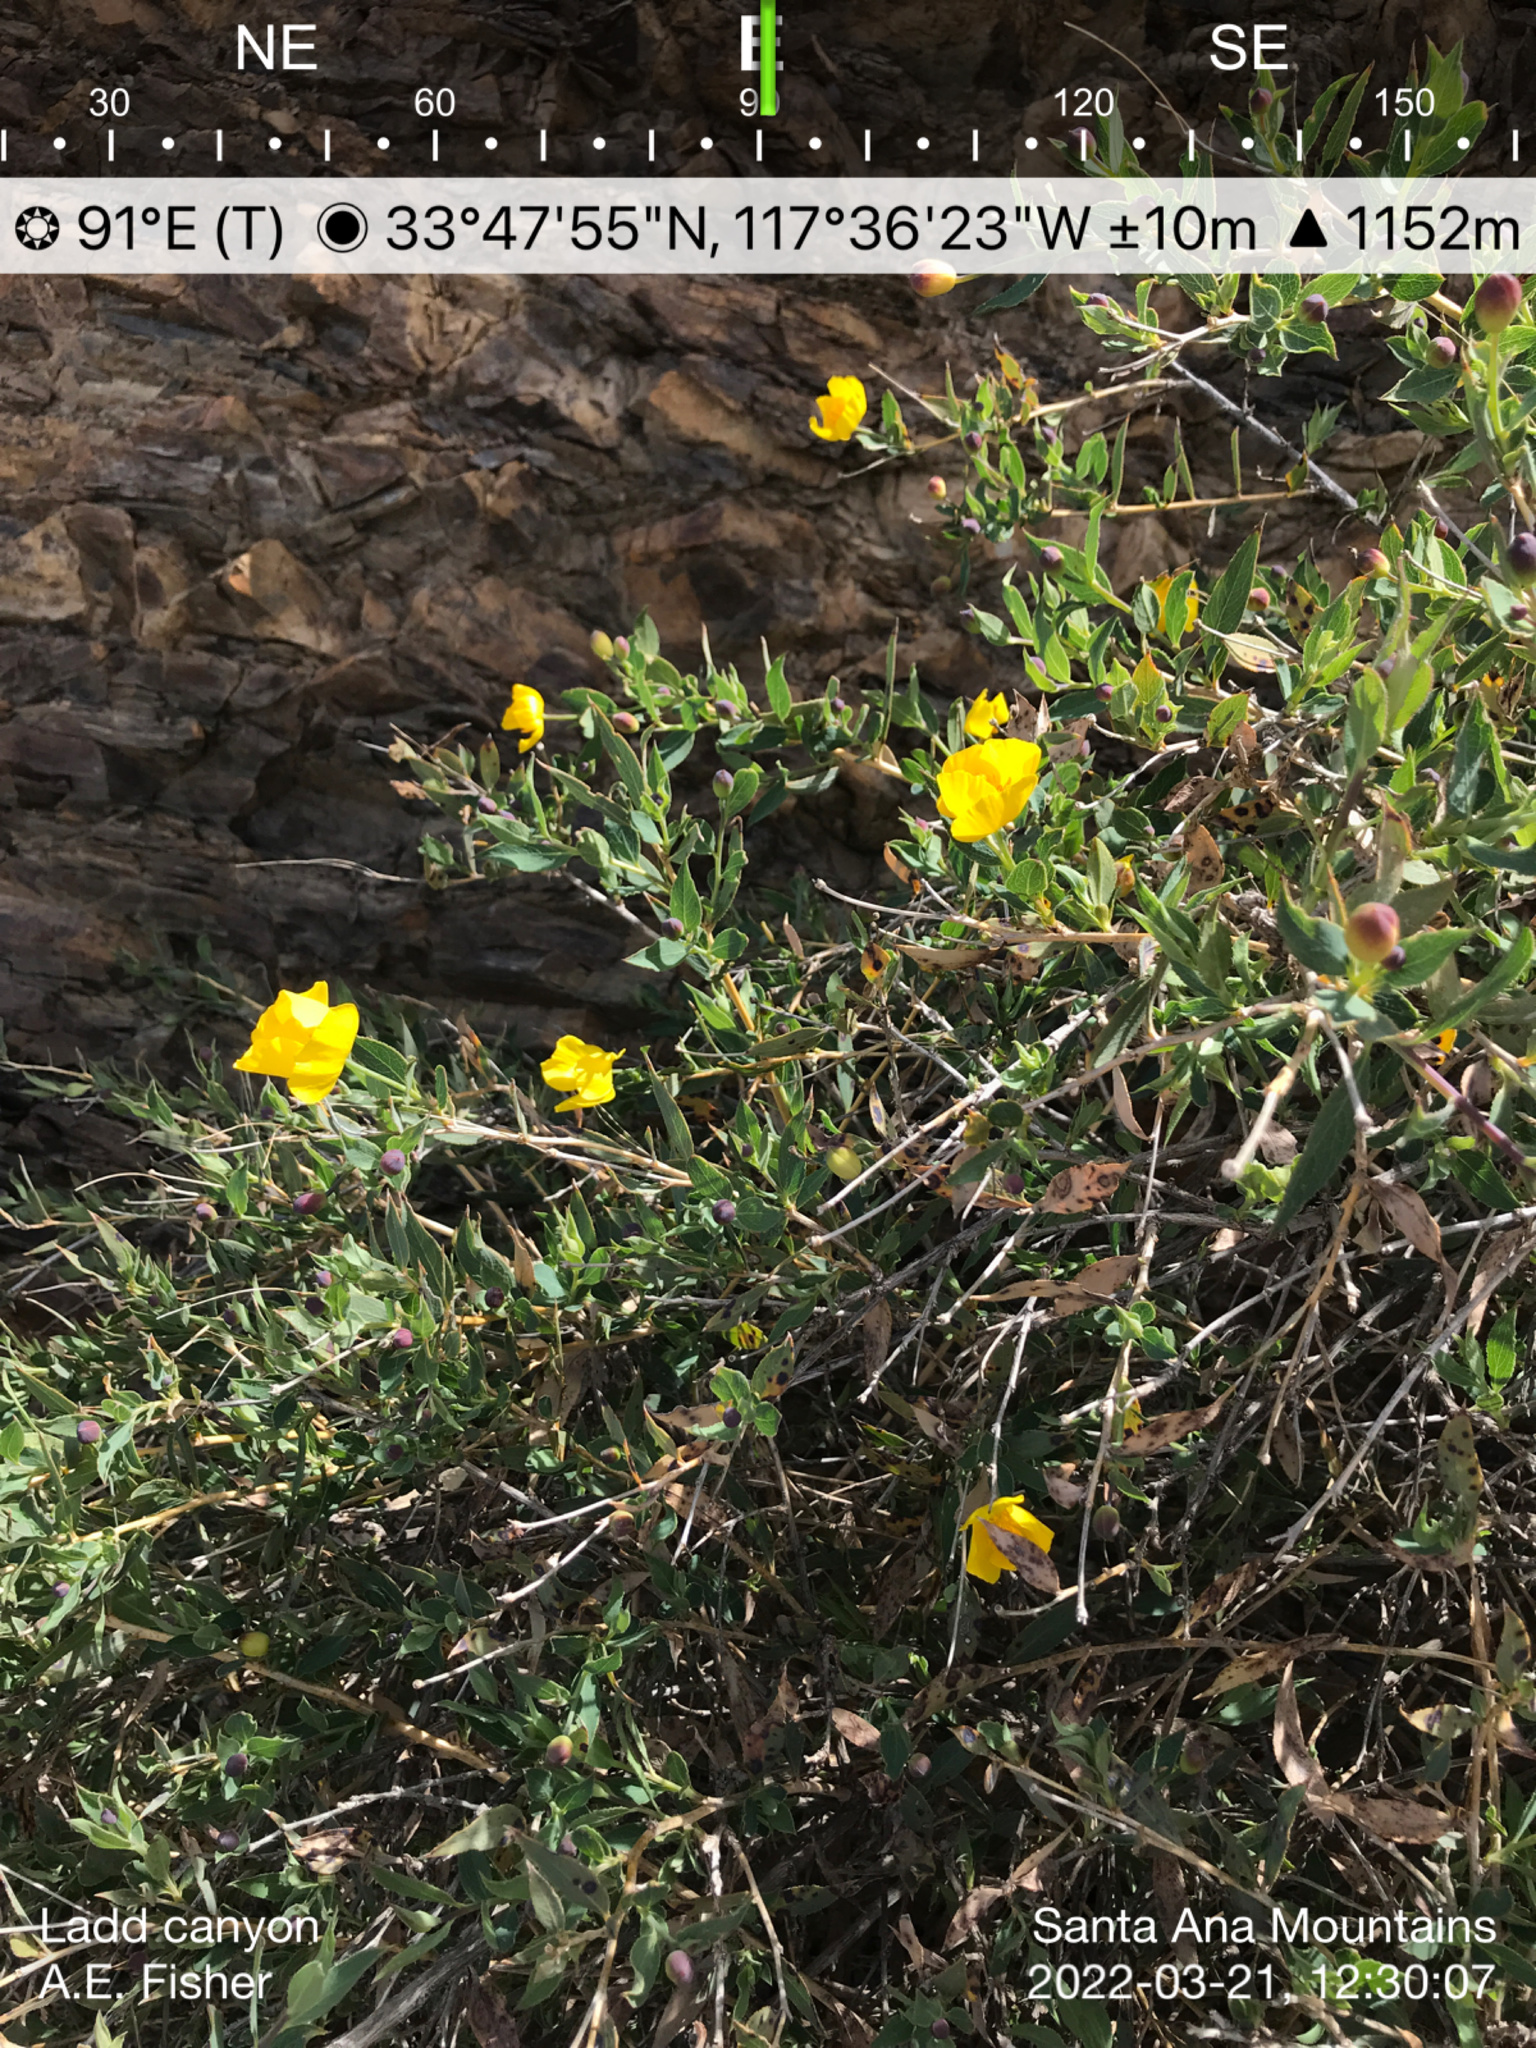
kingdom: Plantae
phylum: Tracheophyta
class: Magnoliopsida
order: Ranunculales
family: Papaveraceae
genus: Dendromecon
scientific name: Dendromecon rigida
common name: Tree poppy
